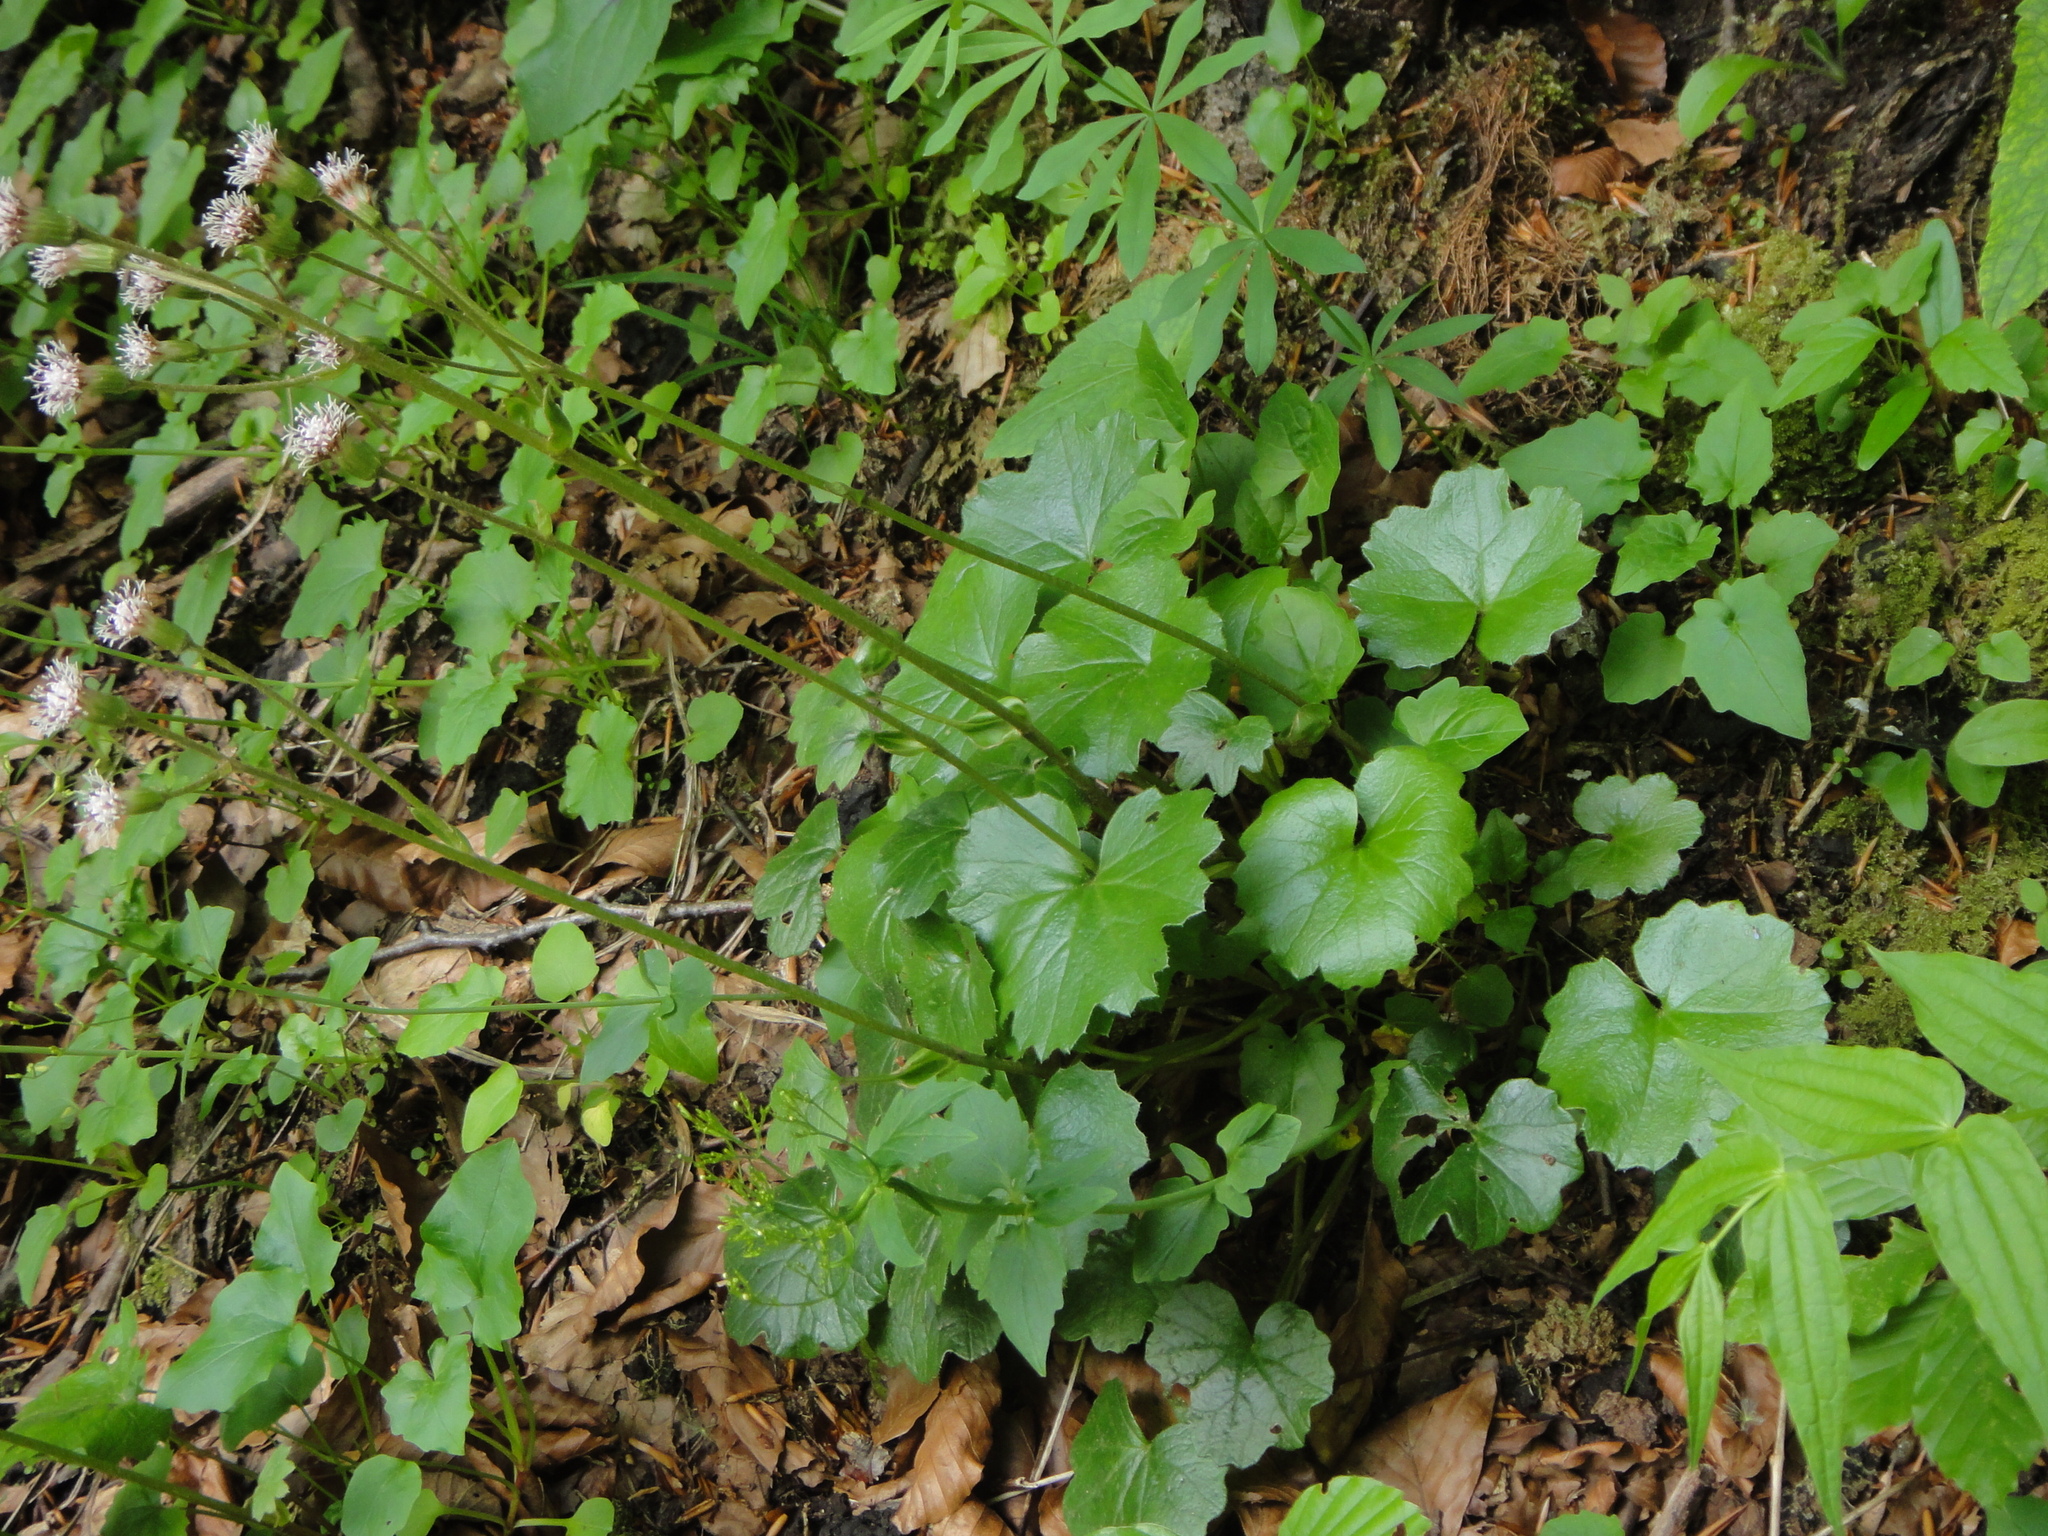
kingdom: Plantae
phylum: Tracheophyta
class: Magnoliopsida
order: Asterales
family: Asteraceae
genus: Homogyne
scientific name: Homogyne sylvestris
